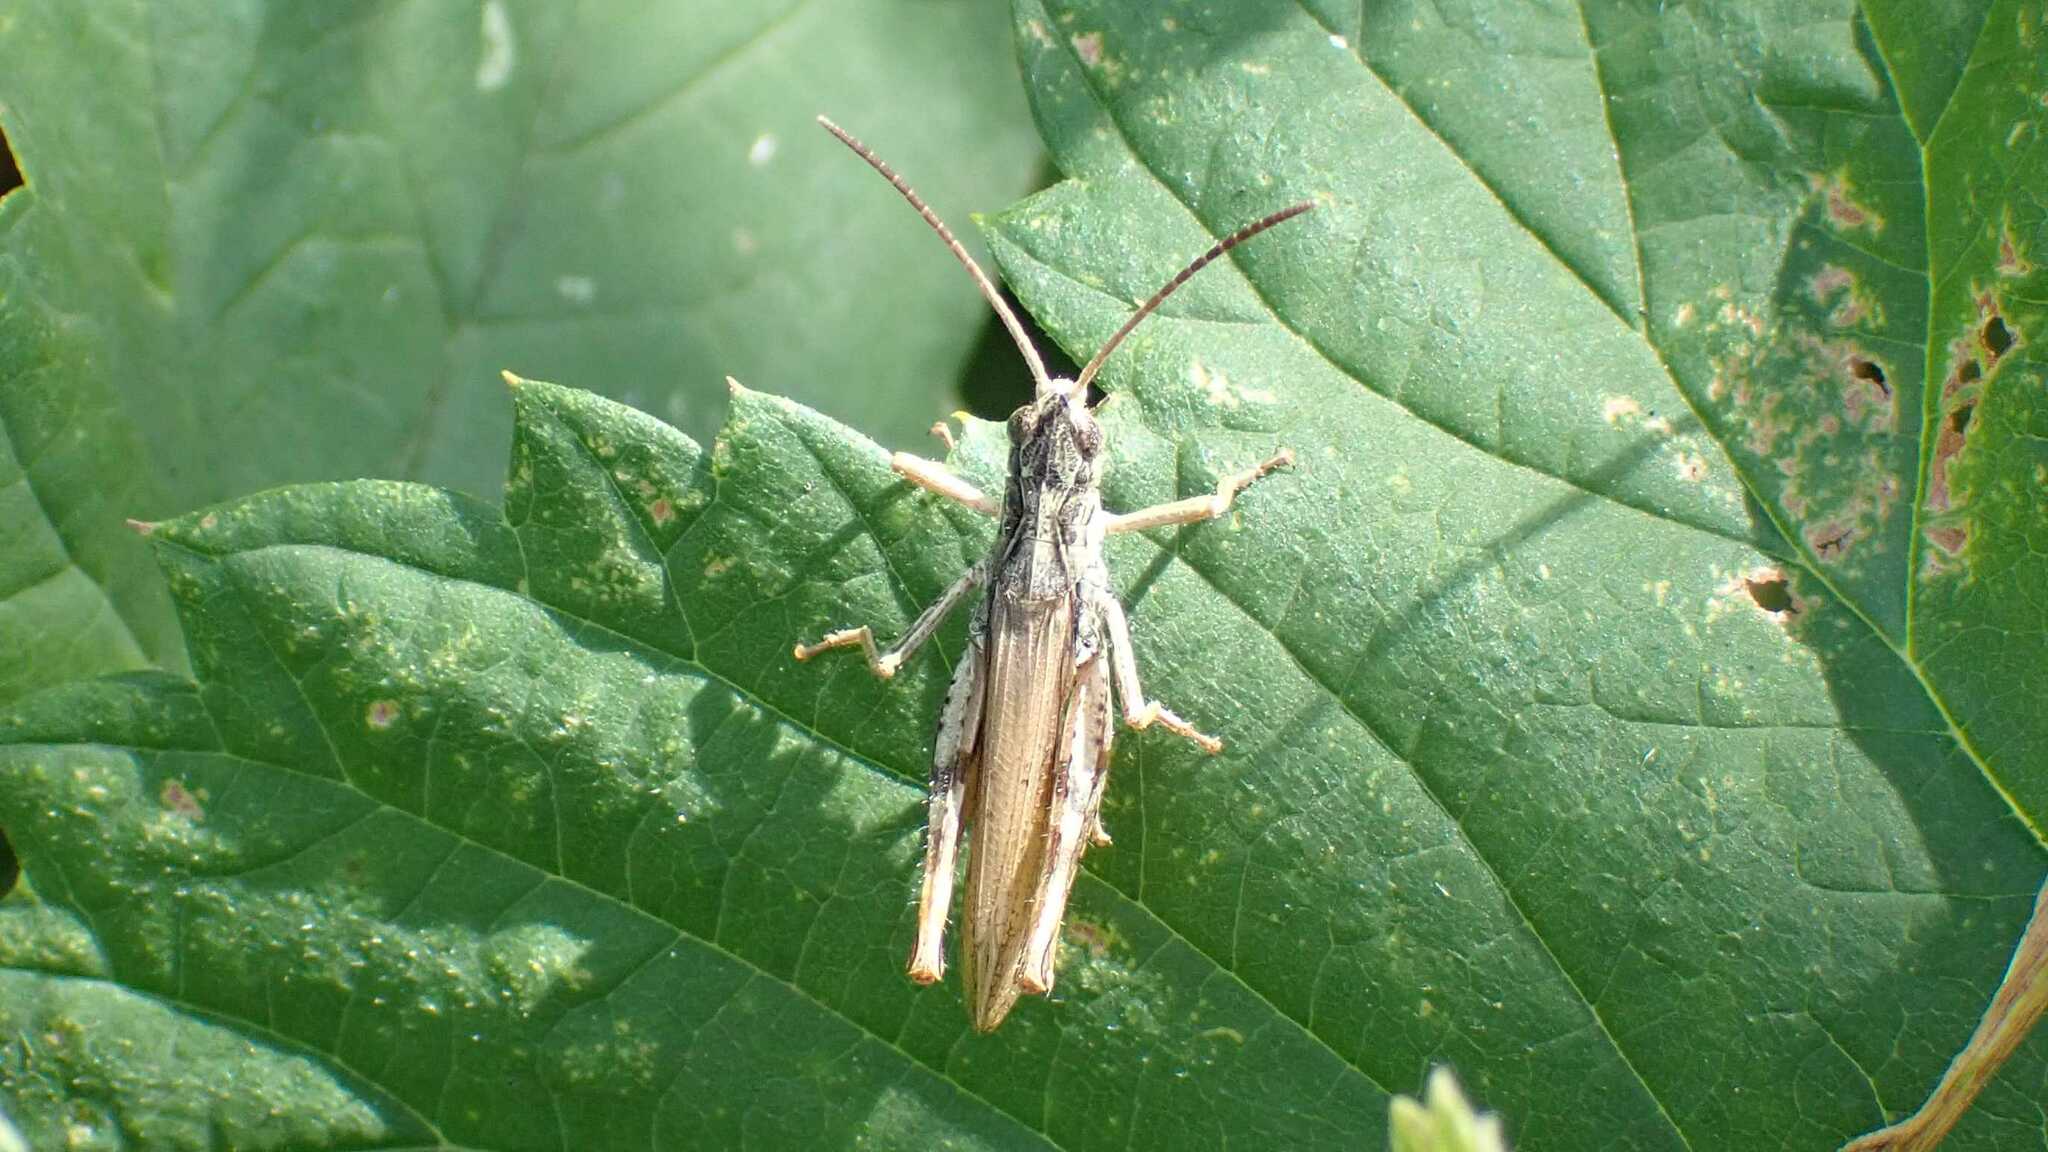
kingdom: Animalia
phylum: Arthropoda
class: Insecta
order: Orthoptera
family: Acrididae
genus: Chorthippus
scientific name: Chorthippus apricarius
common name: Upland field grasshopper
